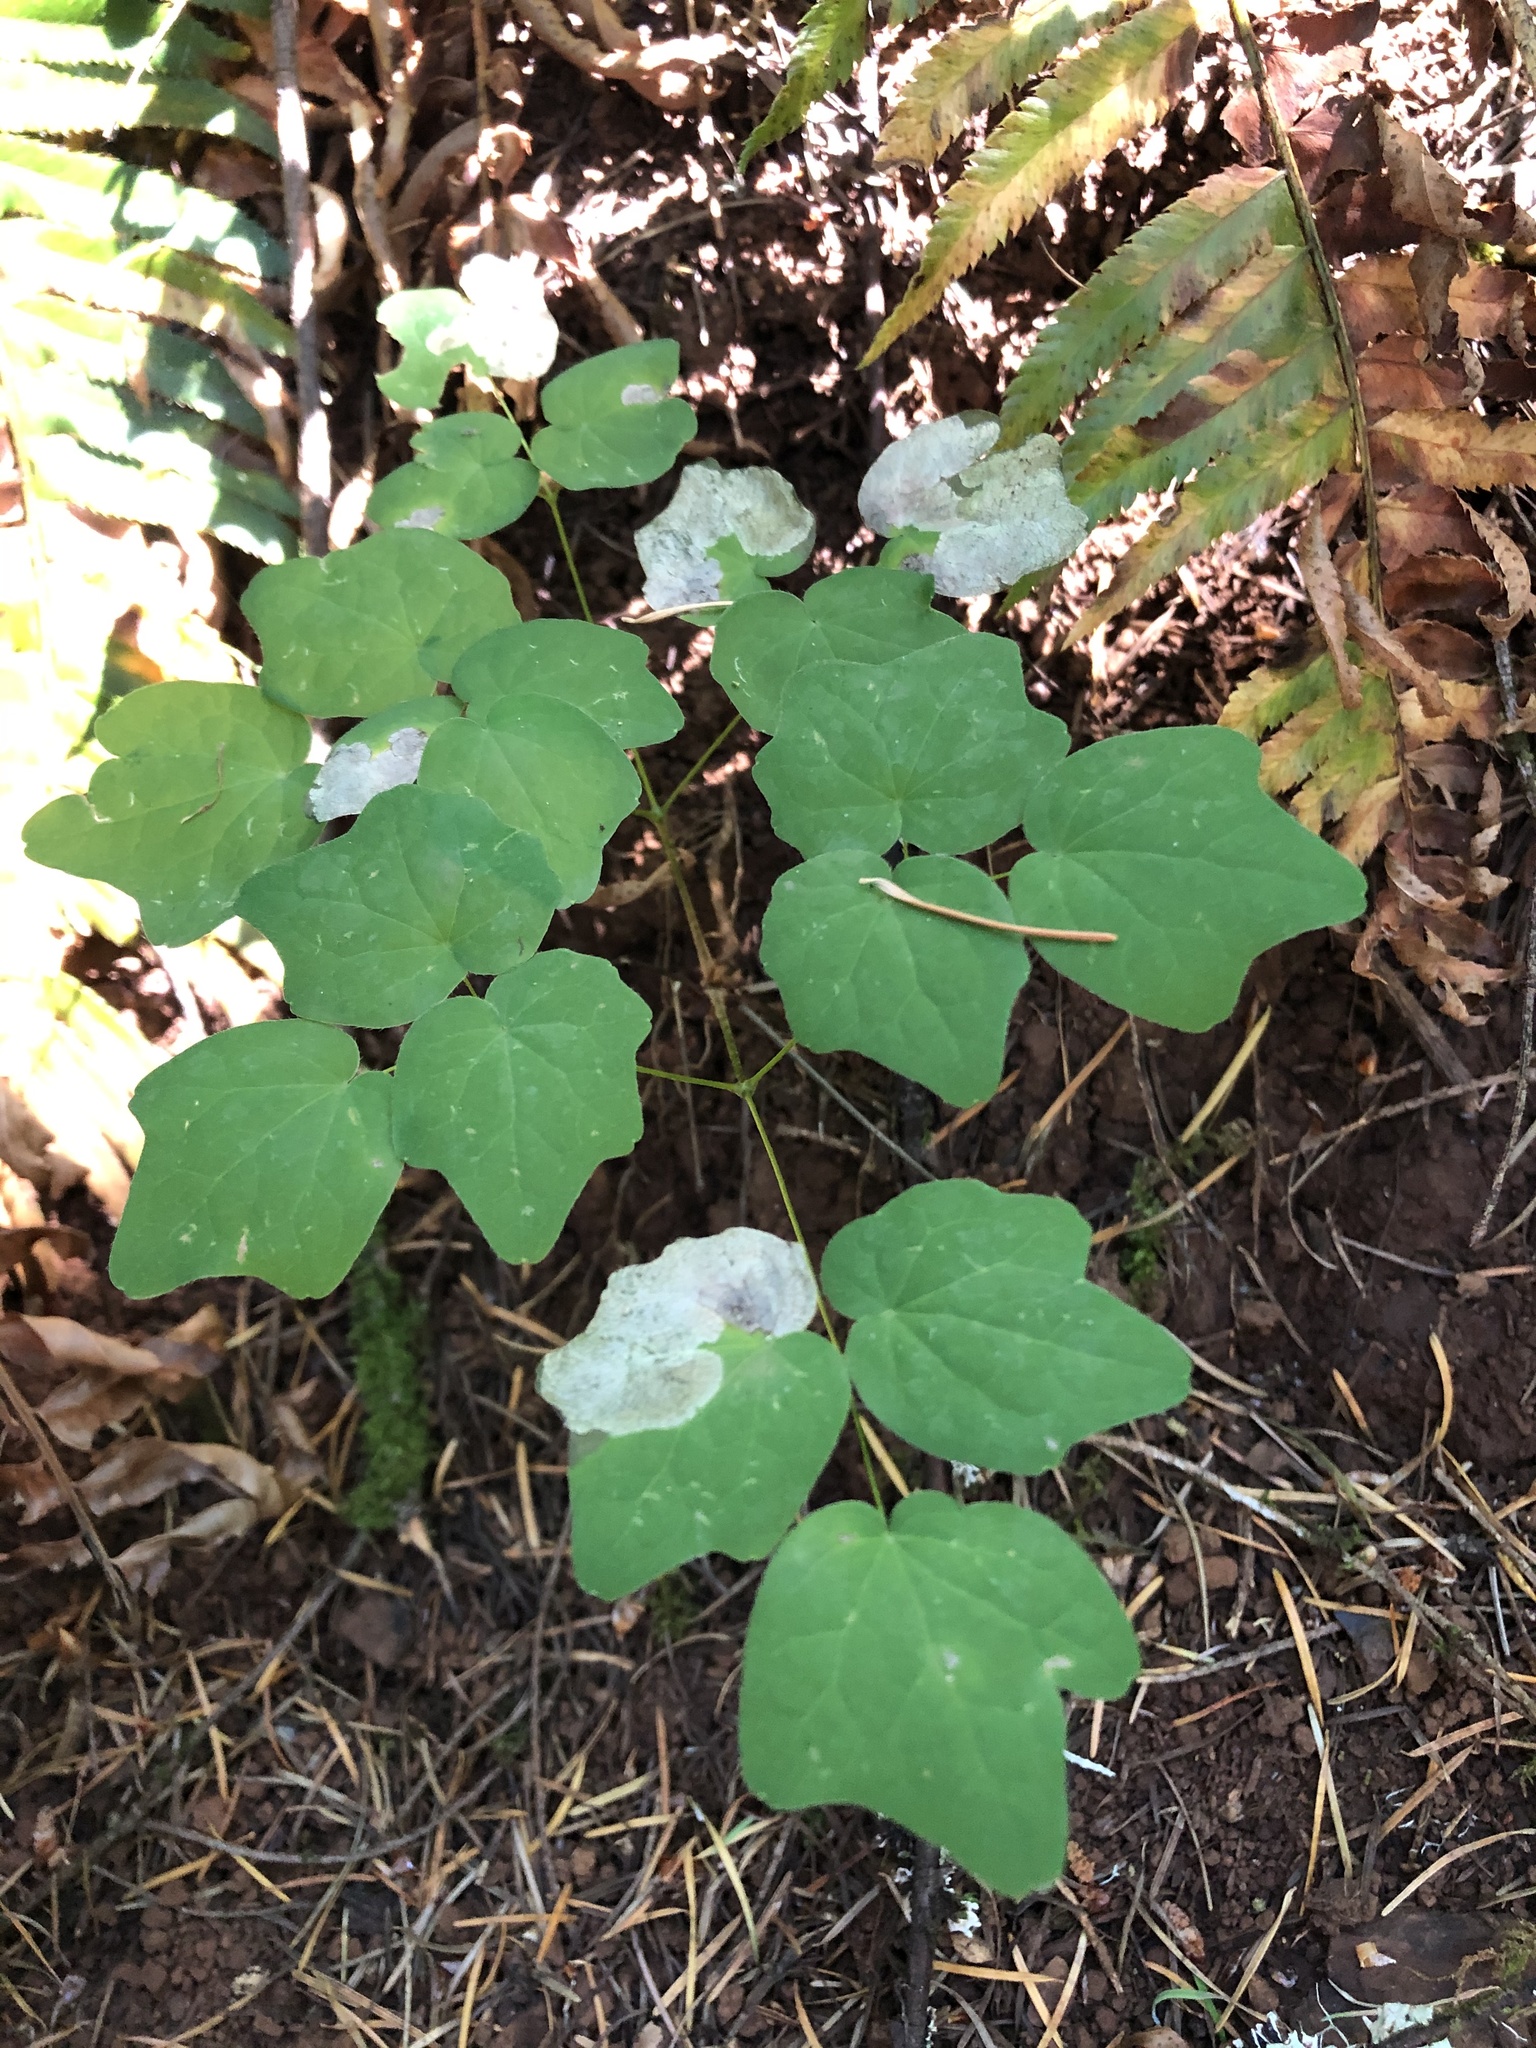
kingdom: Plantae
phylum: Tracheophyta
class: Magnoliopsida
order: Ranunculales
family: Berberidaceae
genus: Vancouveria
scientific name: Vancouveria hexandra
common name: Northern inside-out-flower
